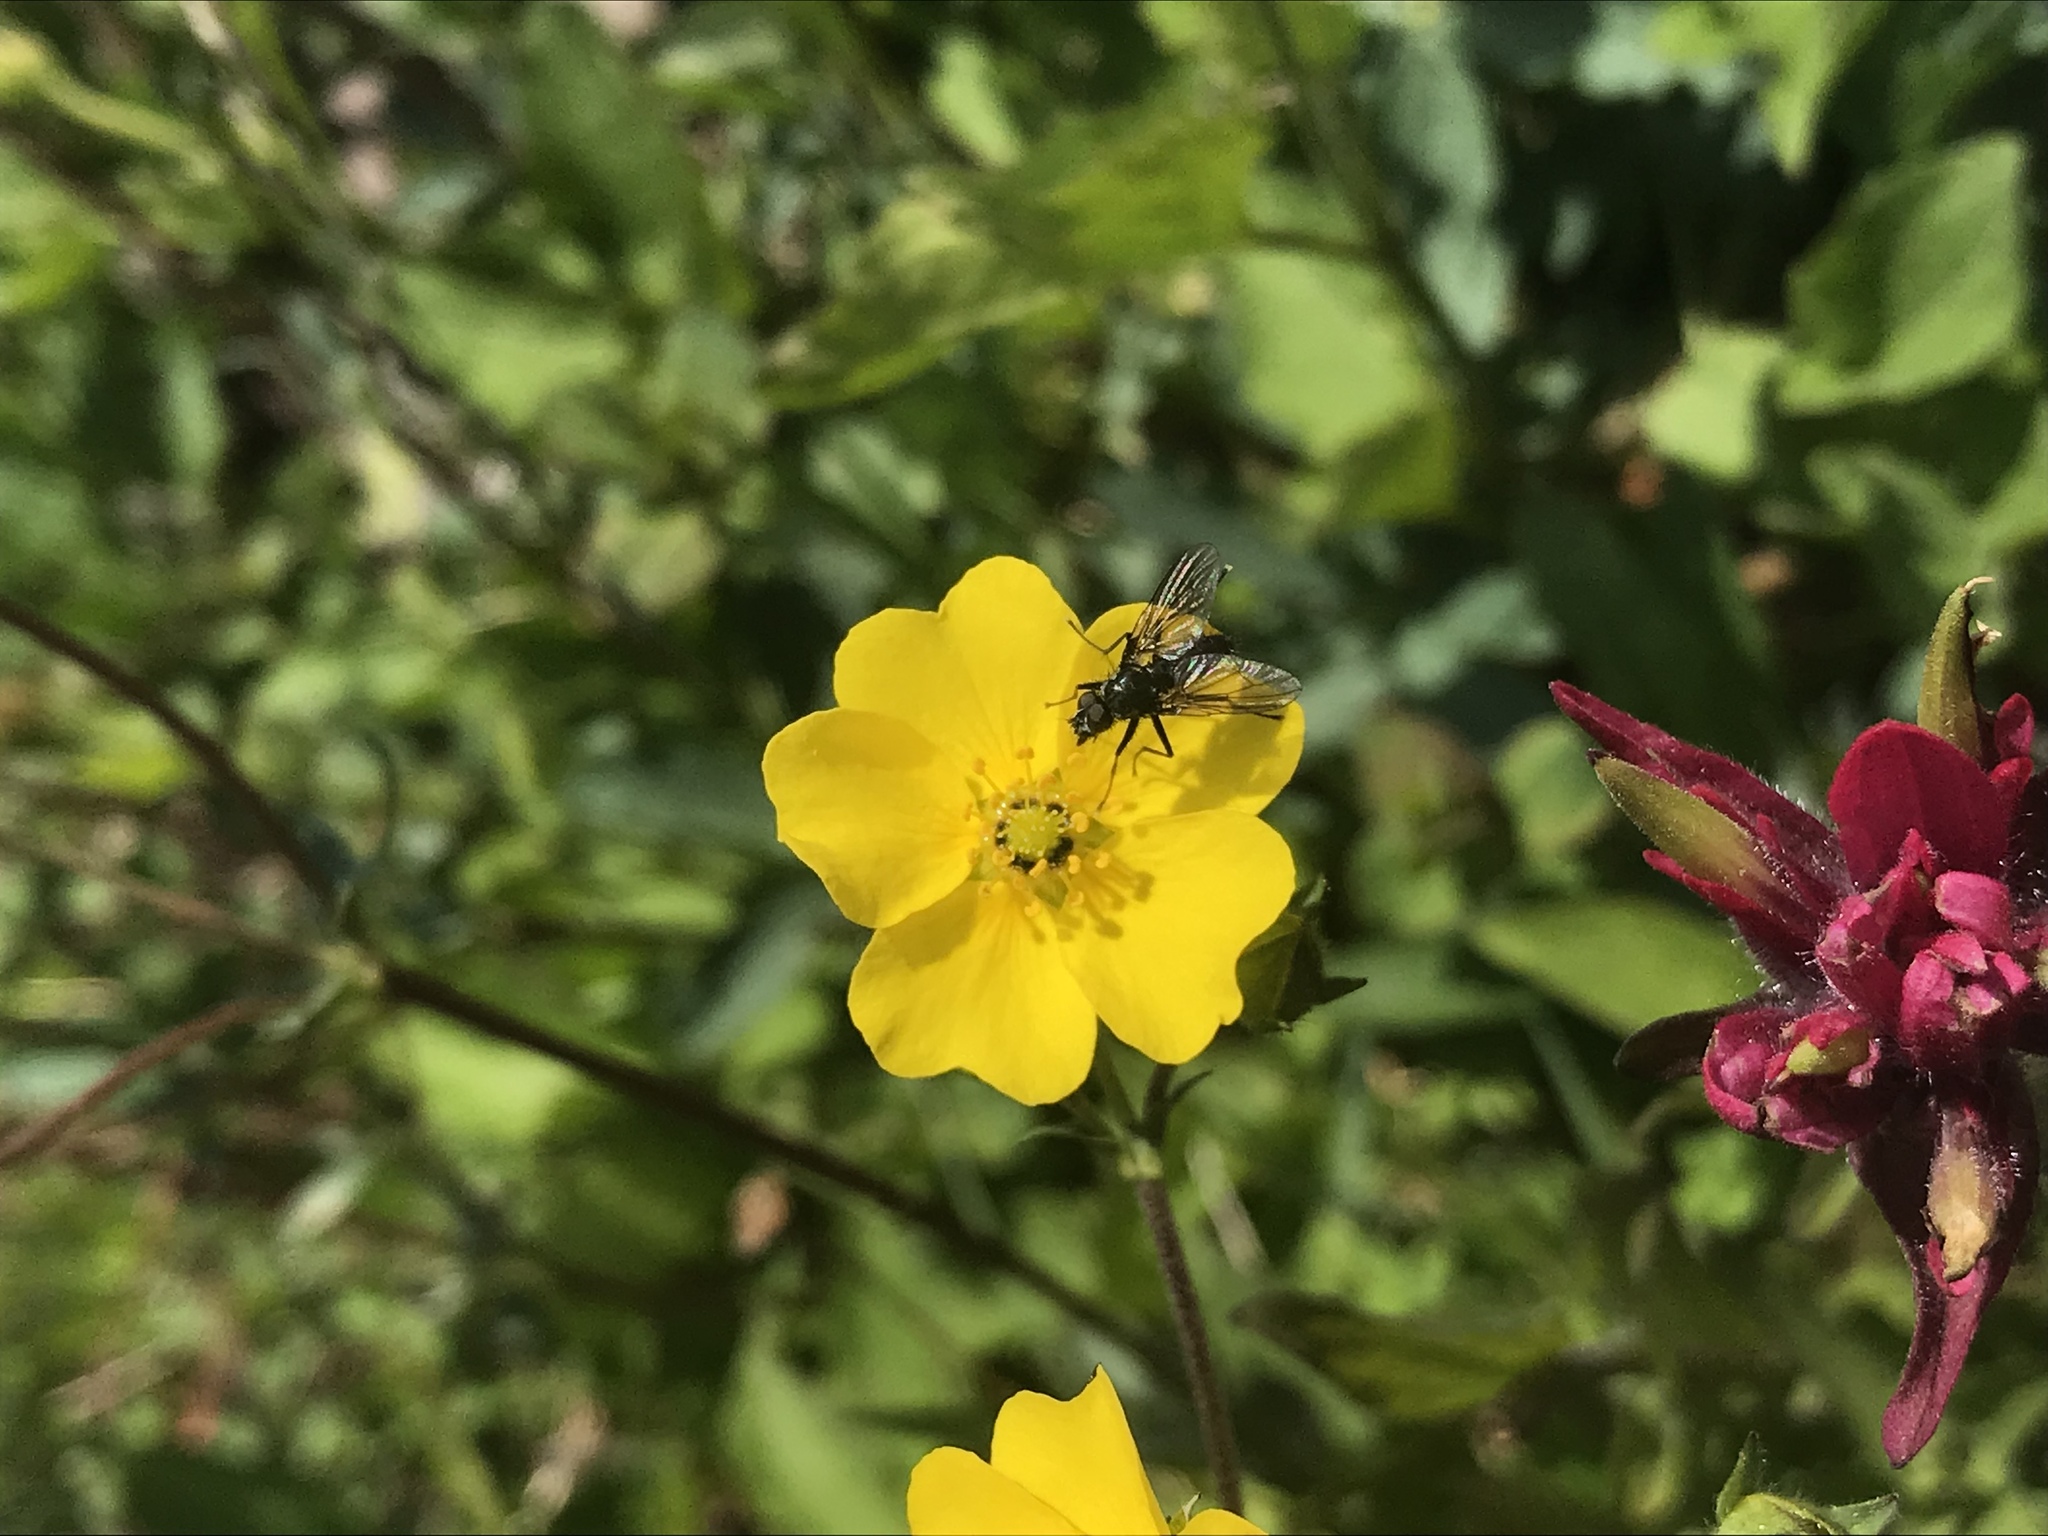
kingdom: Plantae
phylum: Tracheophyta
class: Magnoliopsida
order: Rosales
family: Rosaceae
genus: Potentilla
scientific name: Potentilla glaucophylla
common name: Blue-leaved cinquefoil
